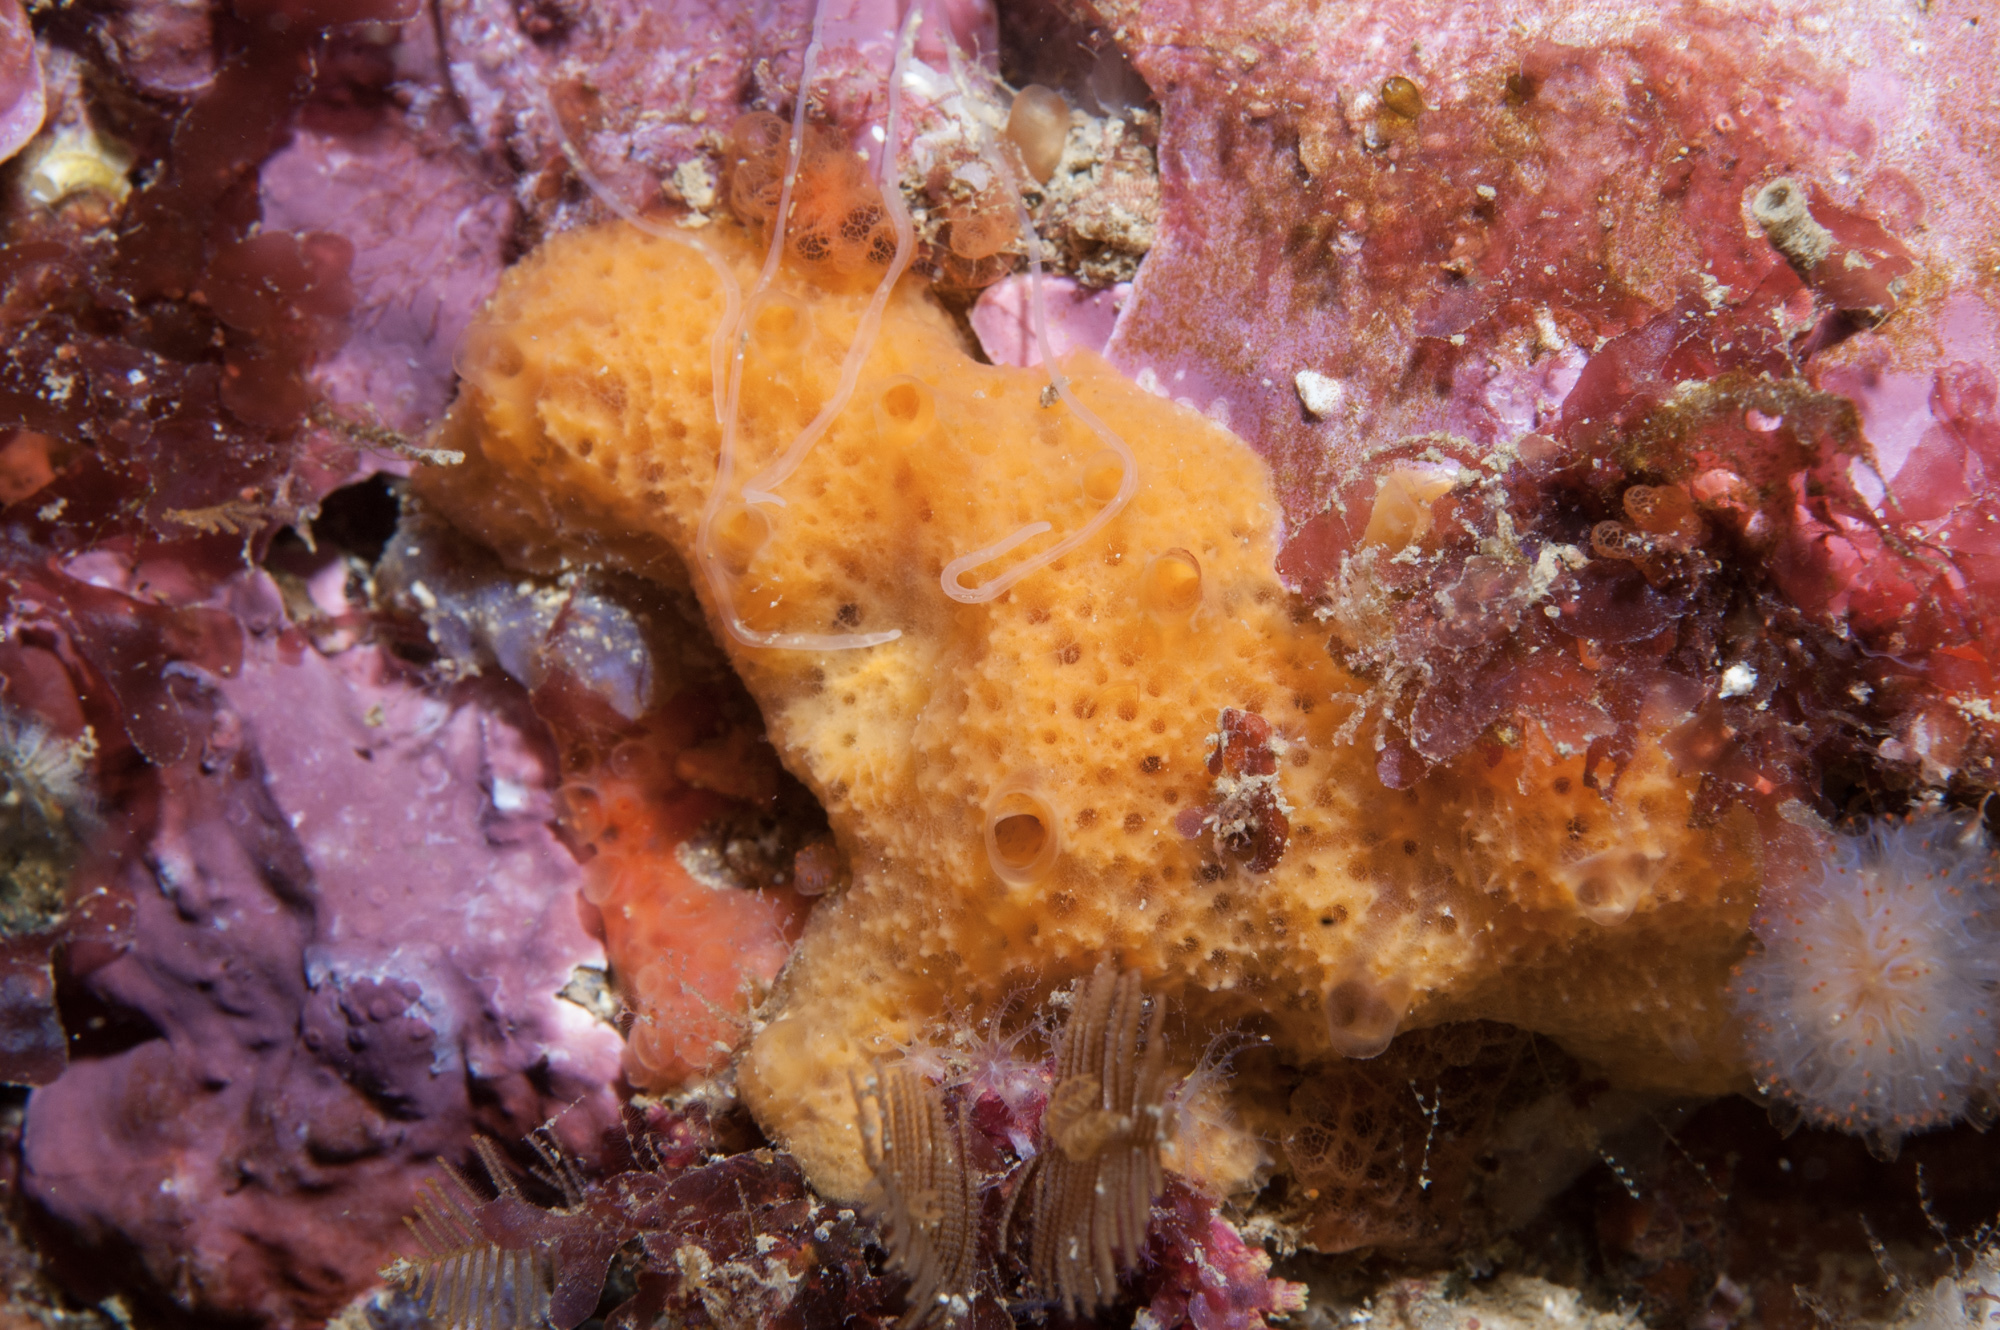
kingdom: Animalia
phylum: Porifera
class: Demospongiae
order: Scopalinida
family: Scopalinidae
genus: Scopalina
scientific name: Scopalina lophyropoda
